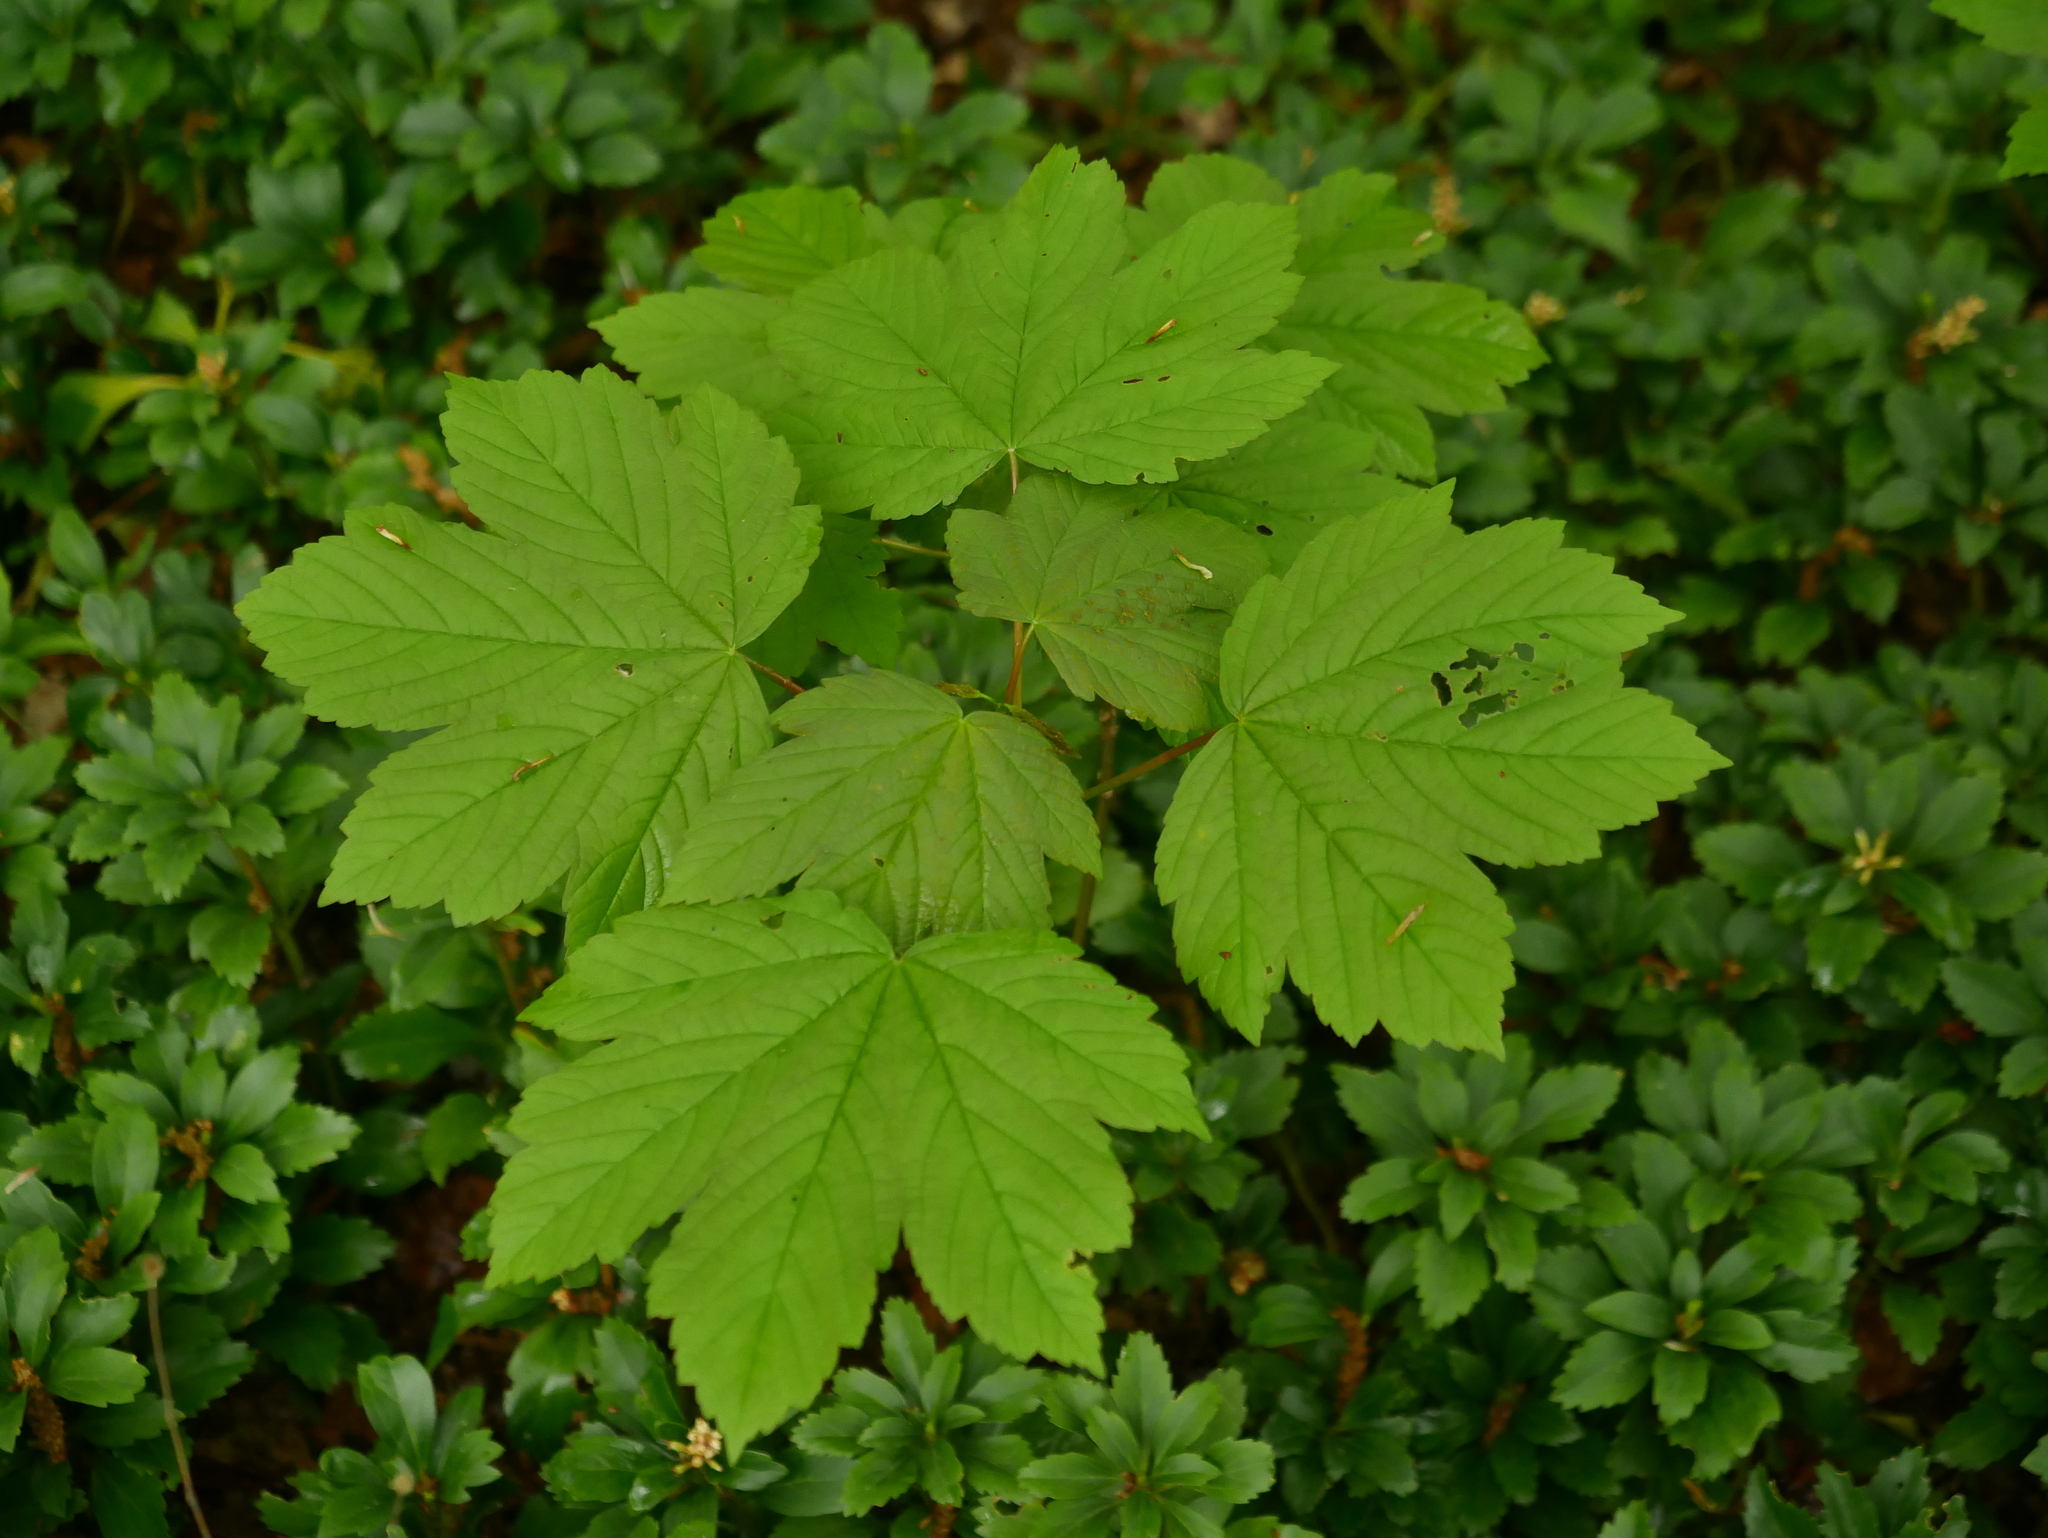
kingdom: Plantae
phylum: Tracheophyta
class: Magnoliopsida
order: Sapindales
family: Sapindaceae
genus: Acer
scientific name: Acer pseudoplatanus
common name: Sycamore
